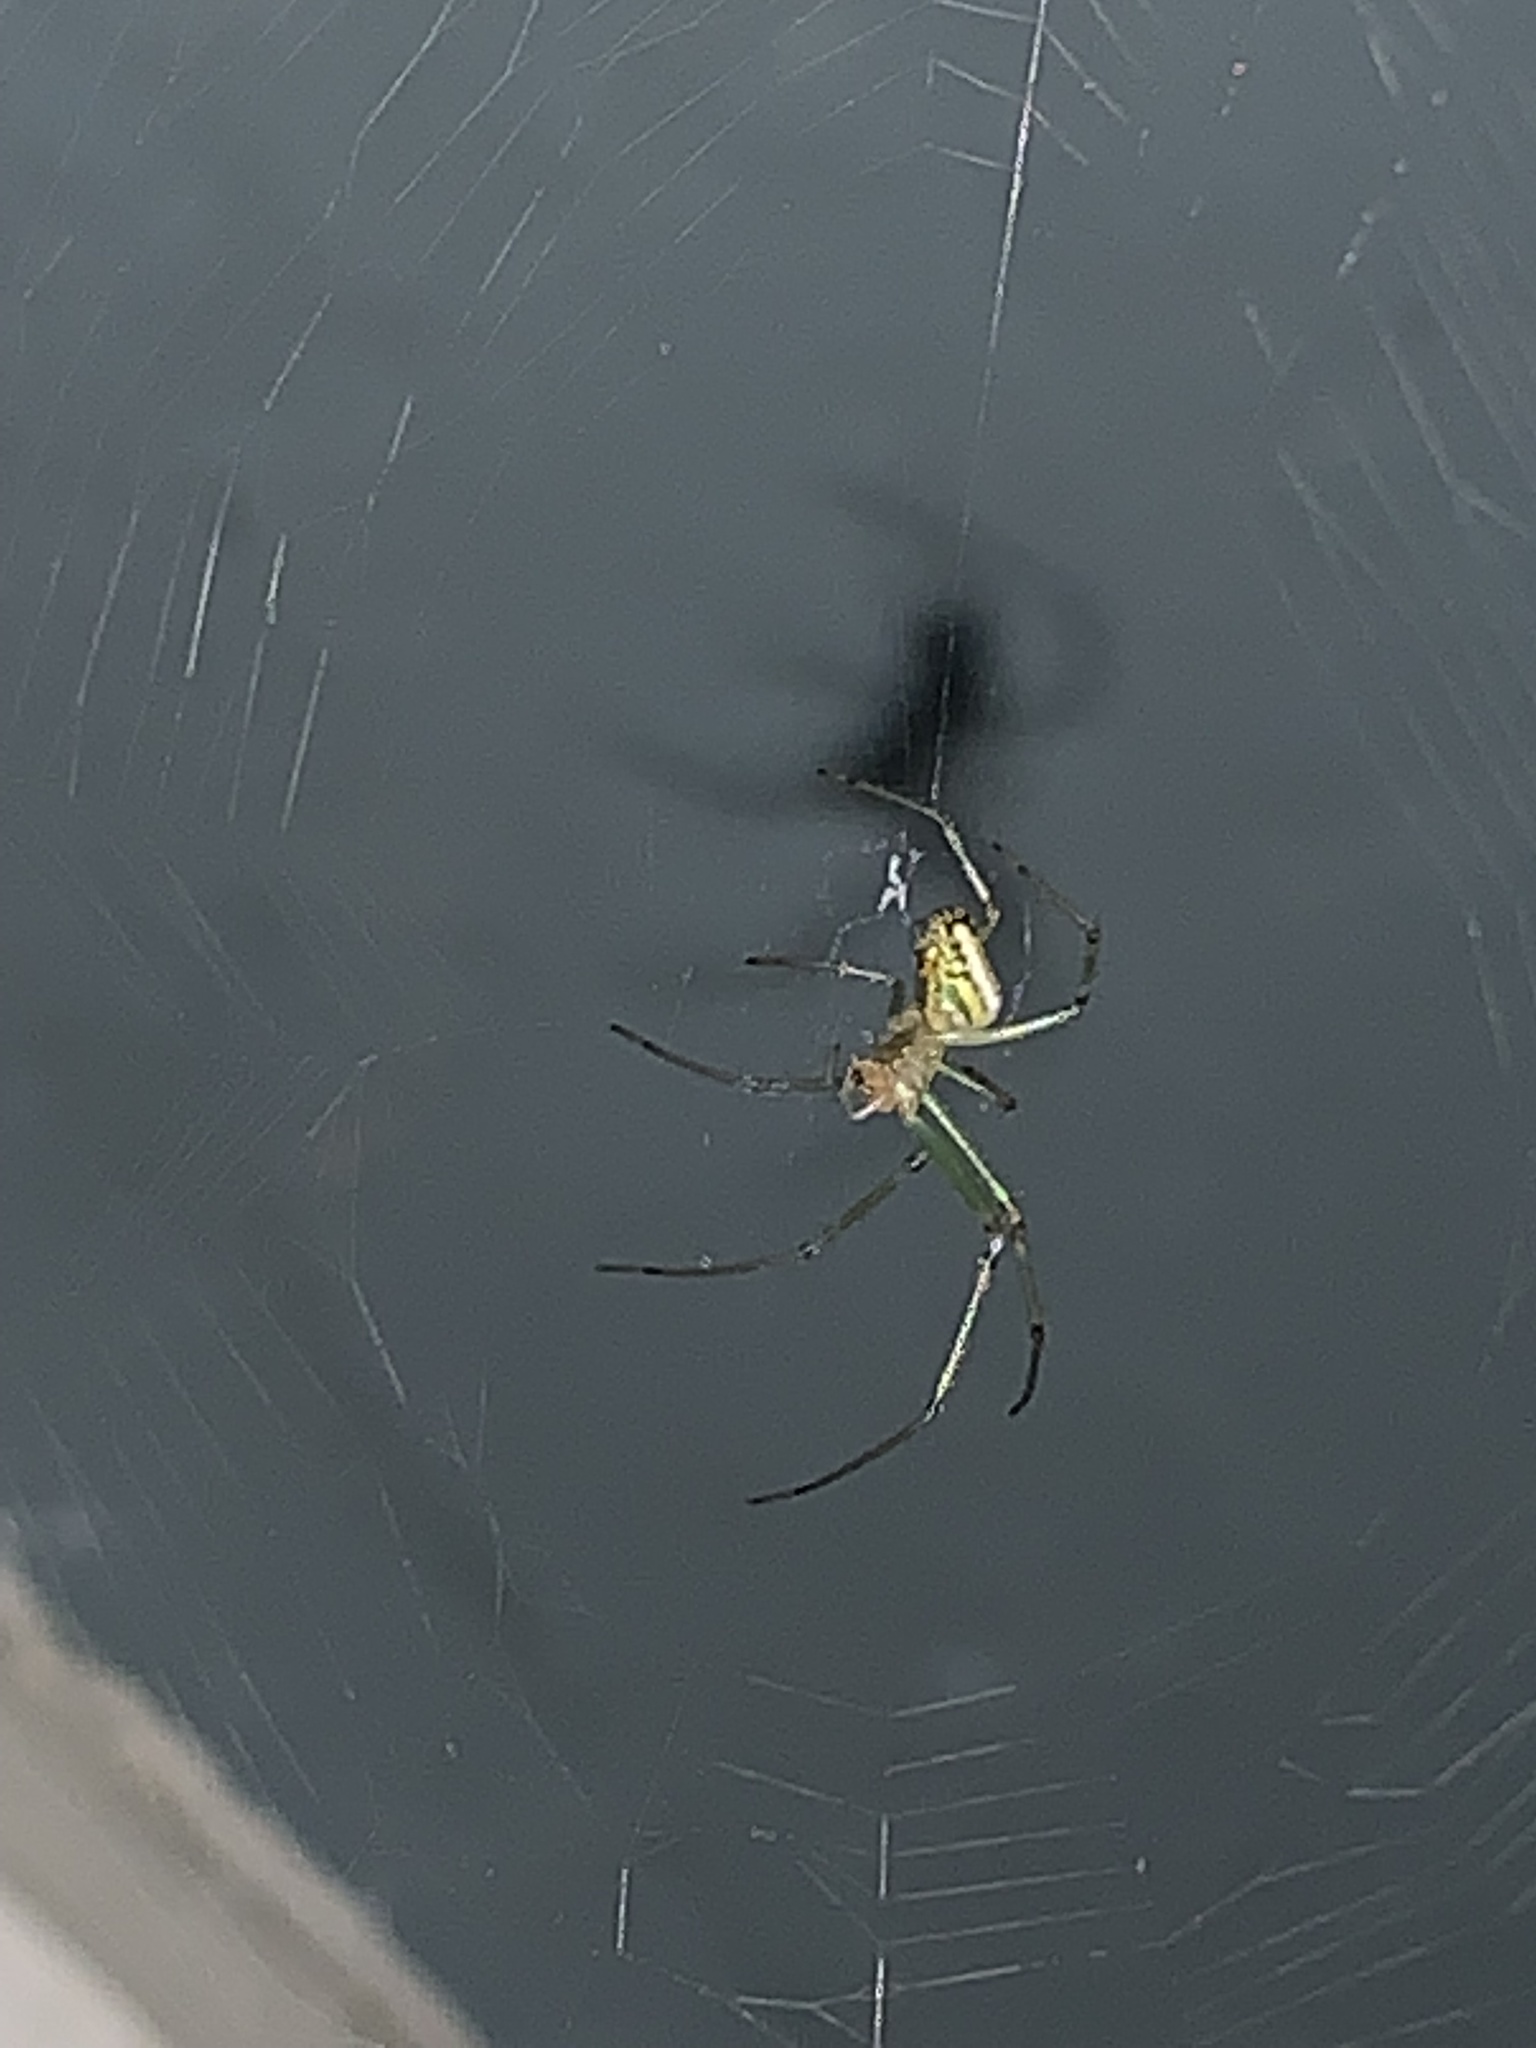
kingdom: Animalia
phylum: Arthropoda
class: Arachnida
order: Araneae
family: Tetragnathidae
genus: Leucauge
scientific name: Leucauge venusta
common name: Longjawed orb weavers
